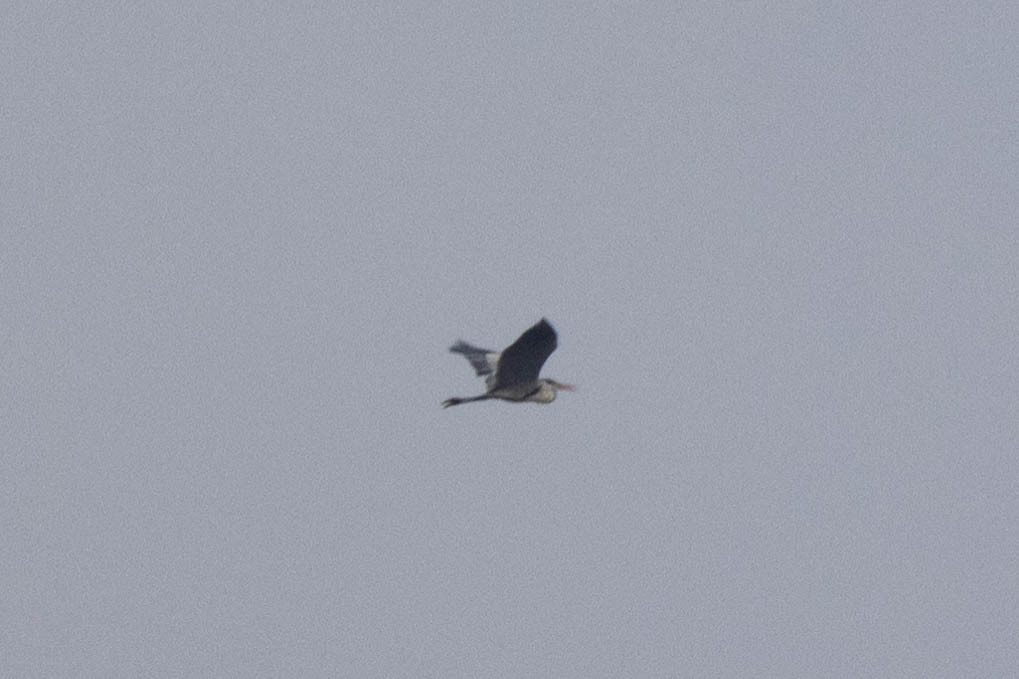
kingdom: Animalia
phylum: Chordata
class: Aves
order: Pelecaniformes
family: Ardeidae
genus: Ardea
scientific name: Ardea cocoi
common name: Cocoi heron
